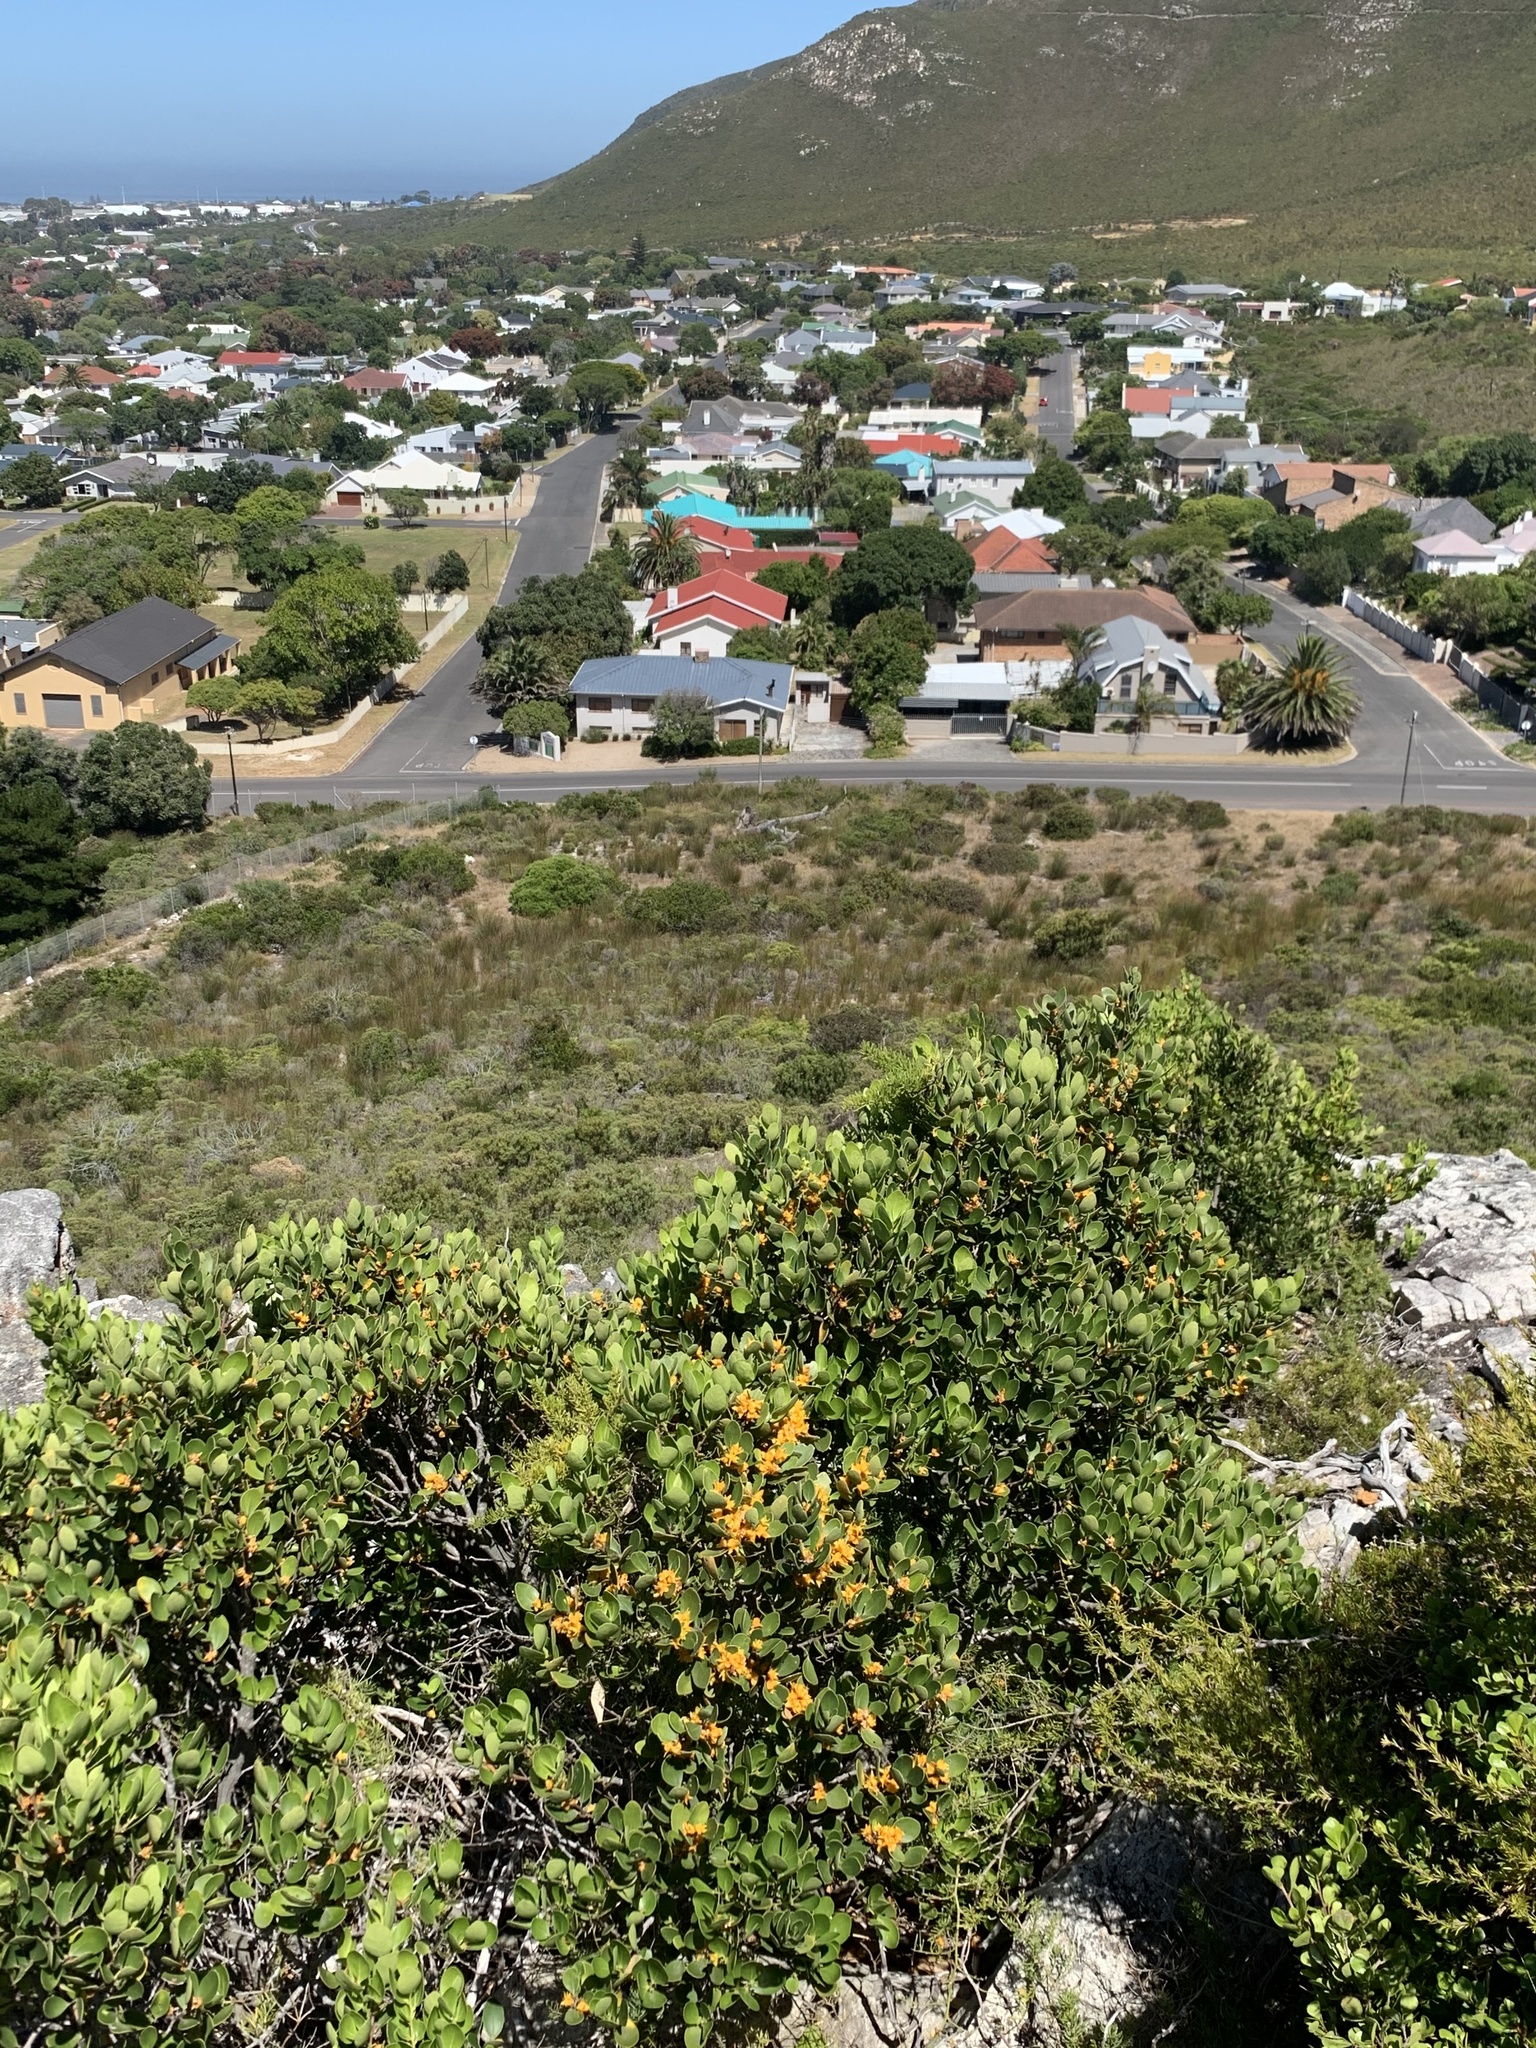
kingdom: Plantae
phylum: Tracheophyta
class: Magnoliopsida
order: Celastrales
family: Celastraceae
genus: Pterocelastrus
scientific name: Pterocelastrus tricuspidatus
